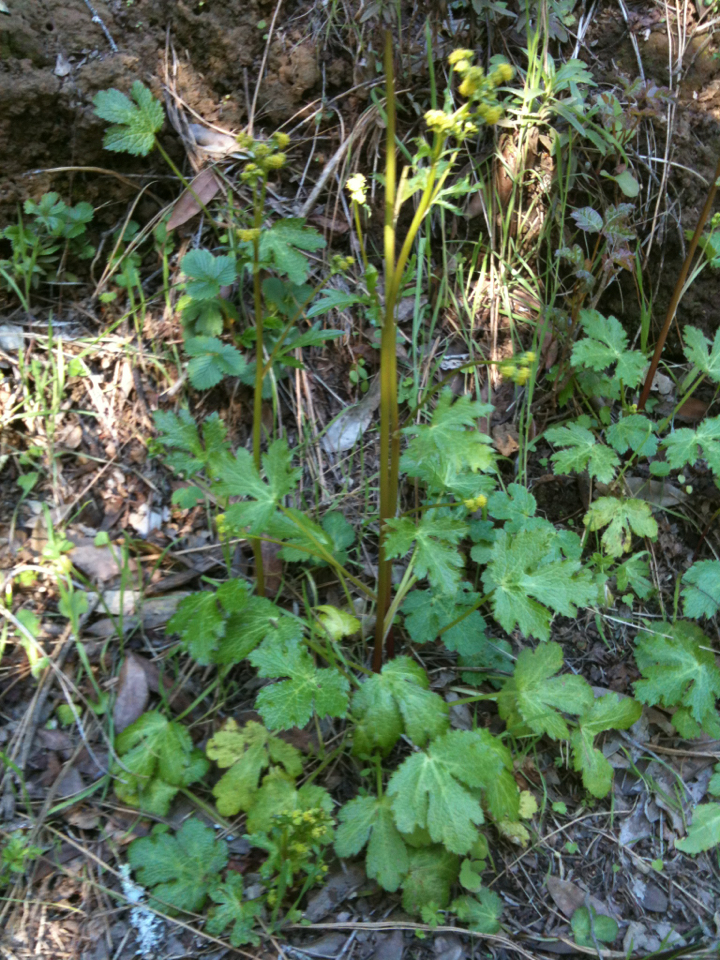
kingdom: Plantae
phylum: Tracheophyta
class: Magnoliopsida
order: Apiales
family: Apiaceae
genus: Sanicula
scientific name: Sanicula crassicaulis
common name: Western snakeroot
